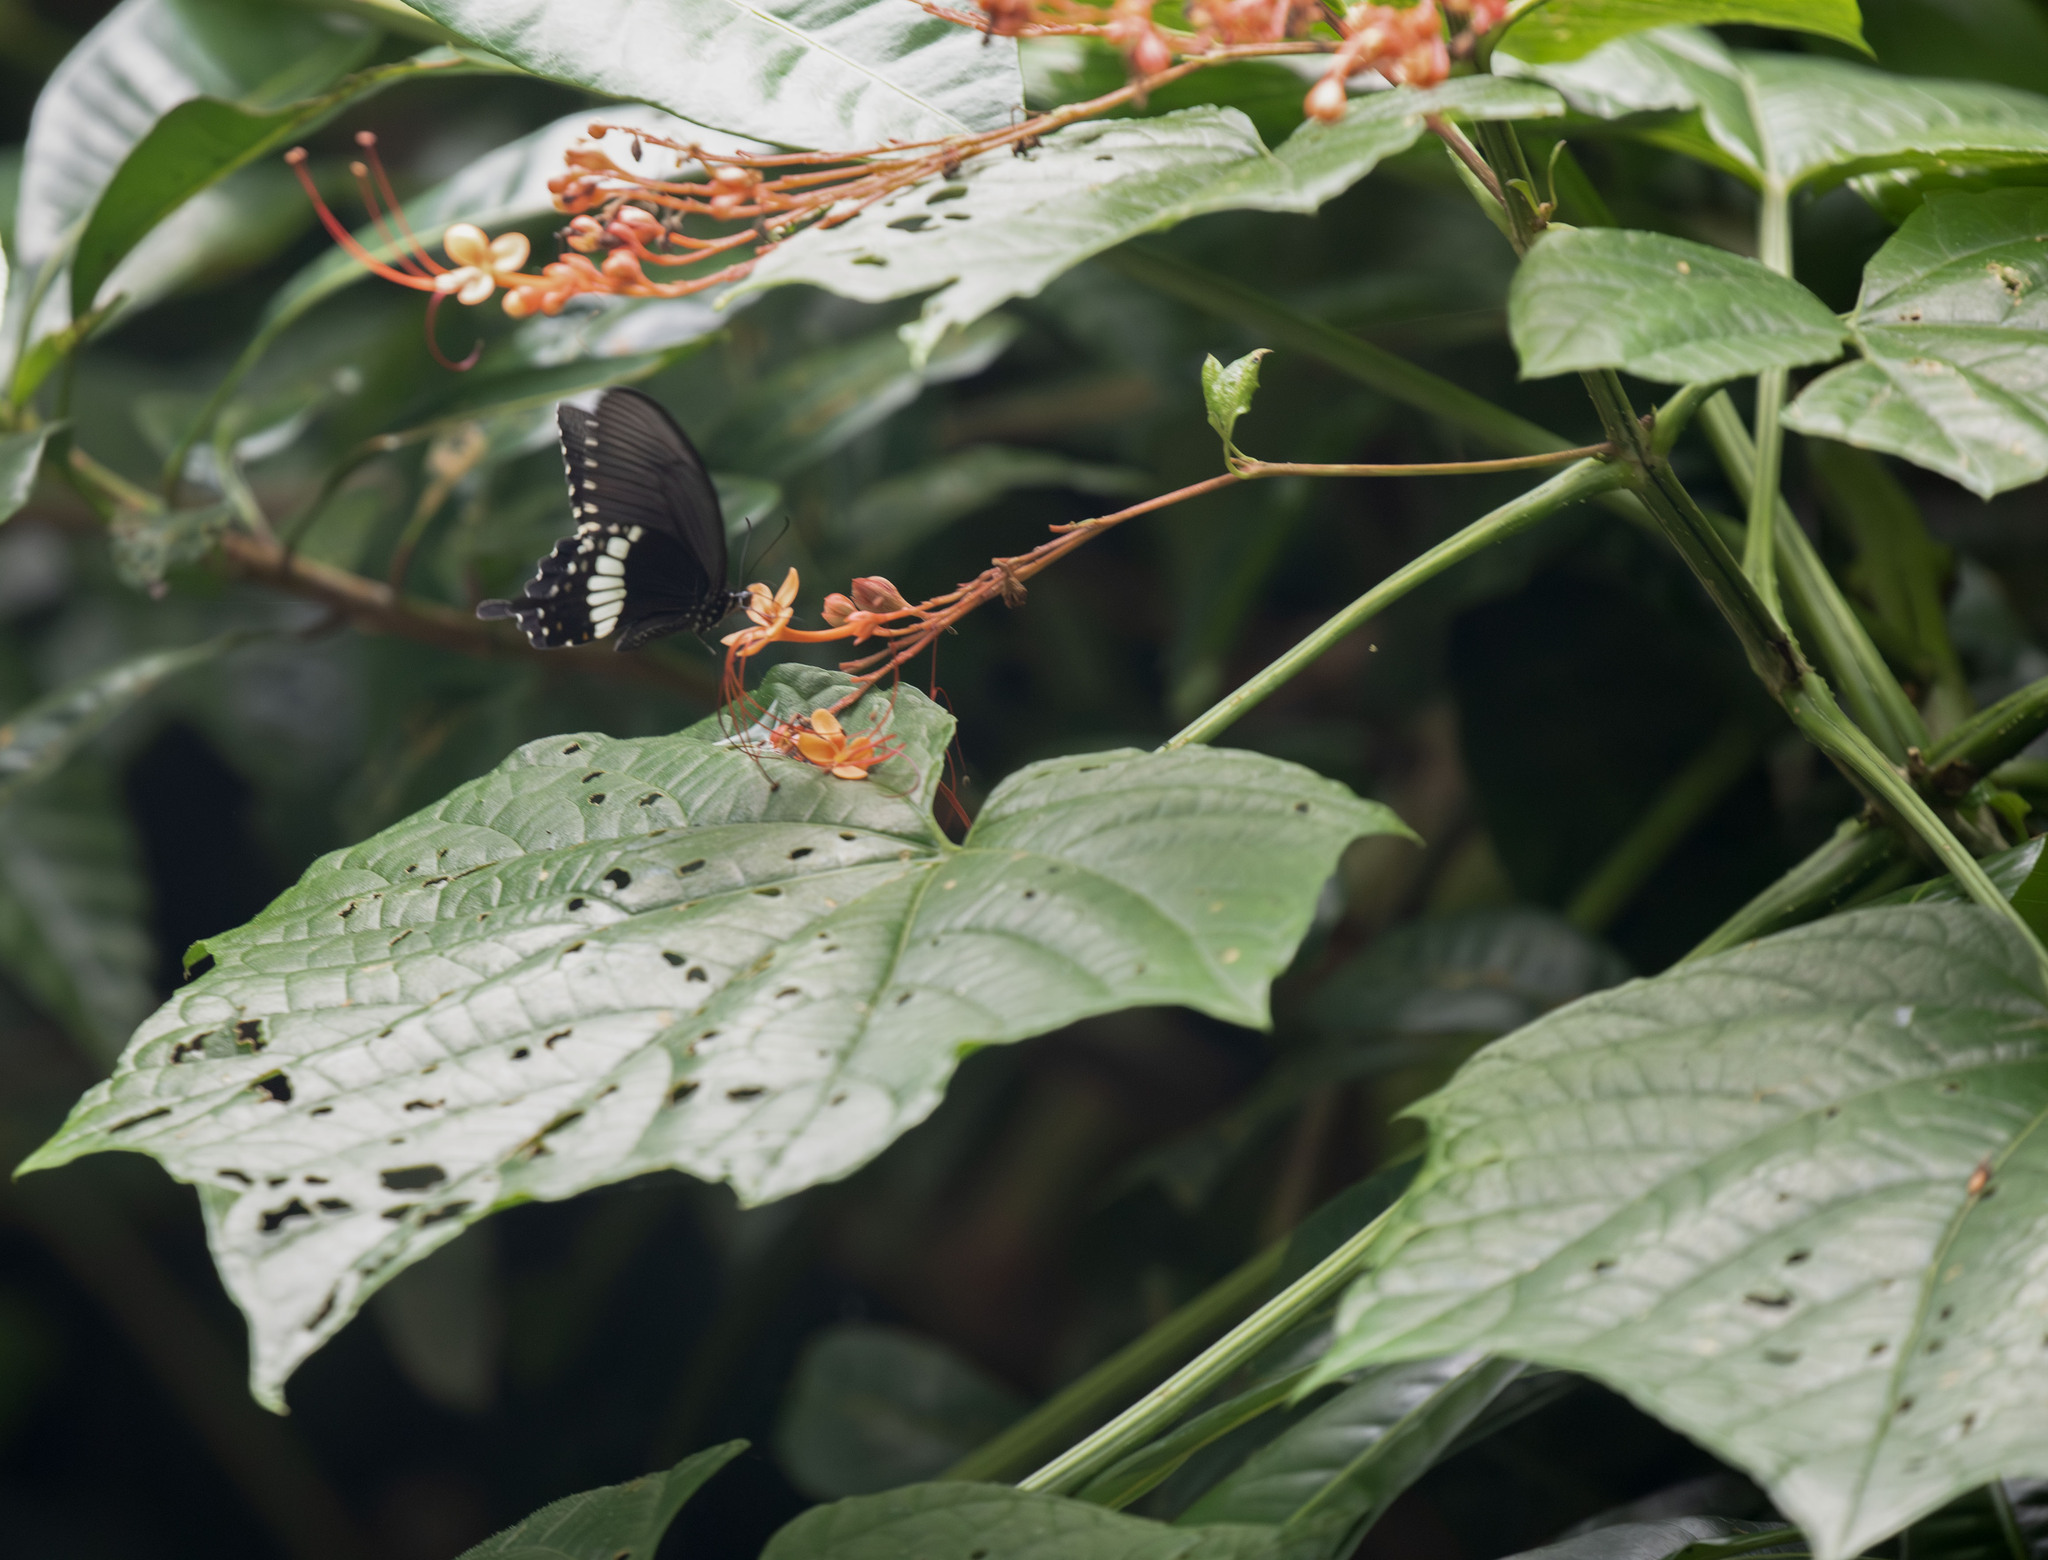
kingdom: Plantae
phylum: Tracheophyta
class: Magnoliopsida
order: Lamiales
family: Lamiaceae
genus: Clerodendrum
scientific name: Clerodendrum paniculatum
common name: Pagoda-flower
